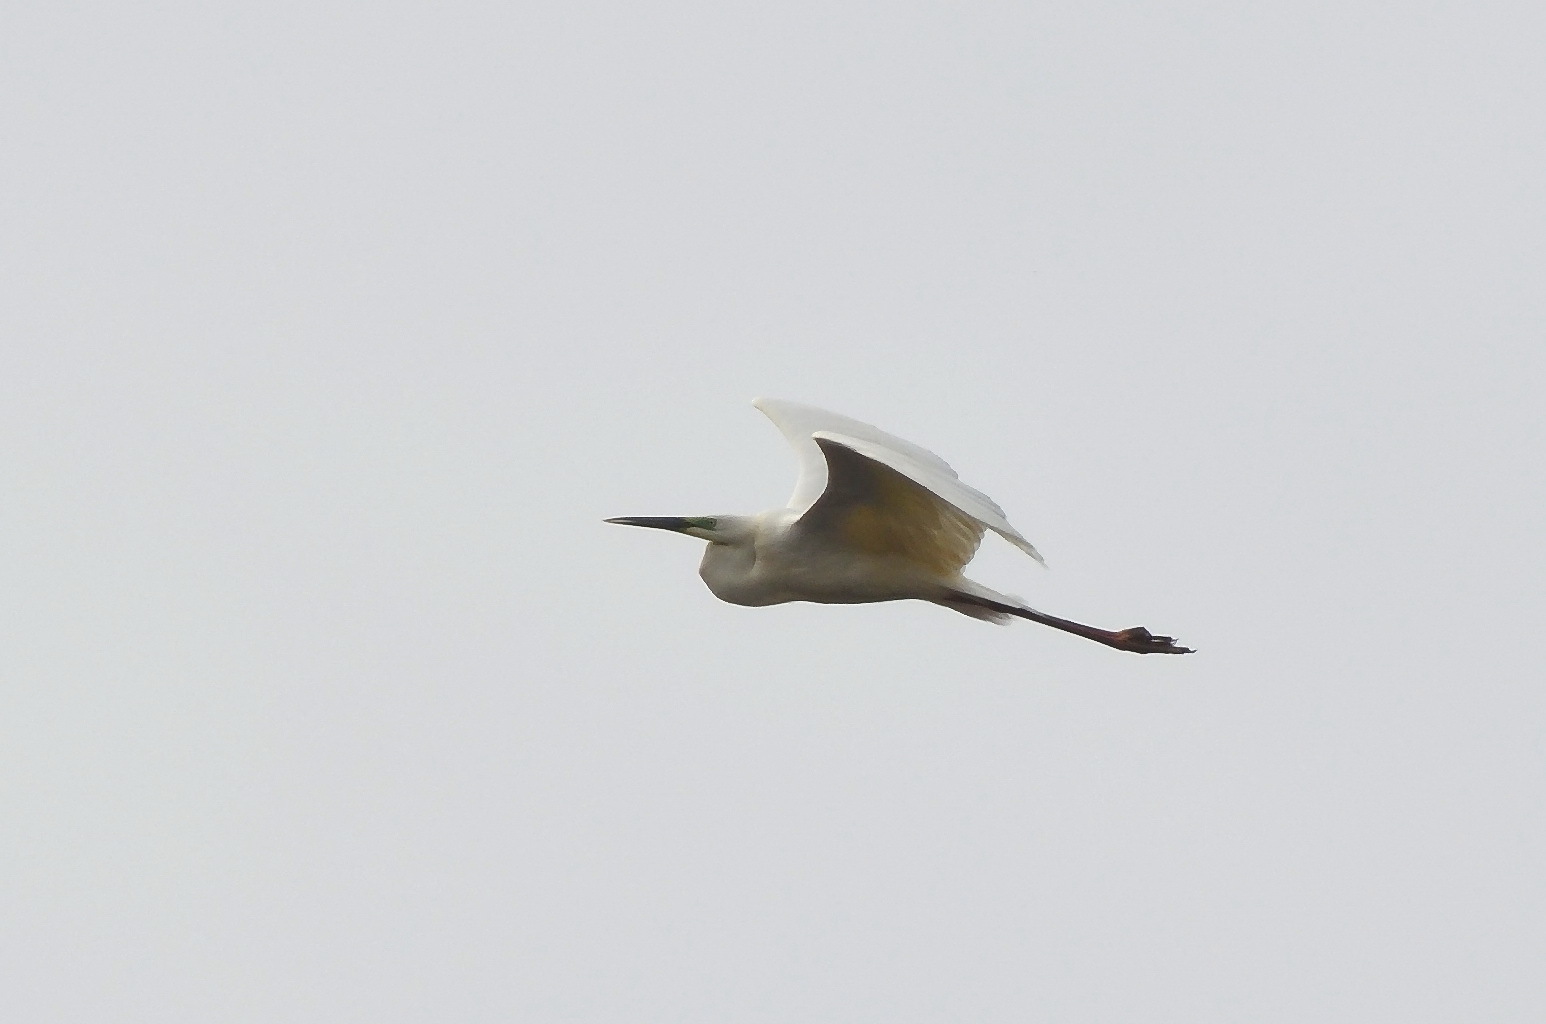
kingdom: Animalia
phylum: Chordata
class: Aves
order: Pelecaniformes
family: Ardeidae
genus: Ardea
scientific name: Ardea alba
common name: Great egret
